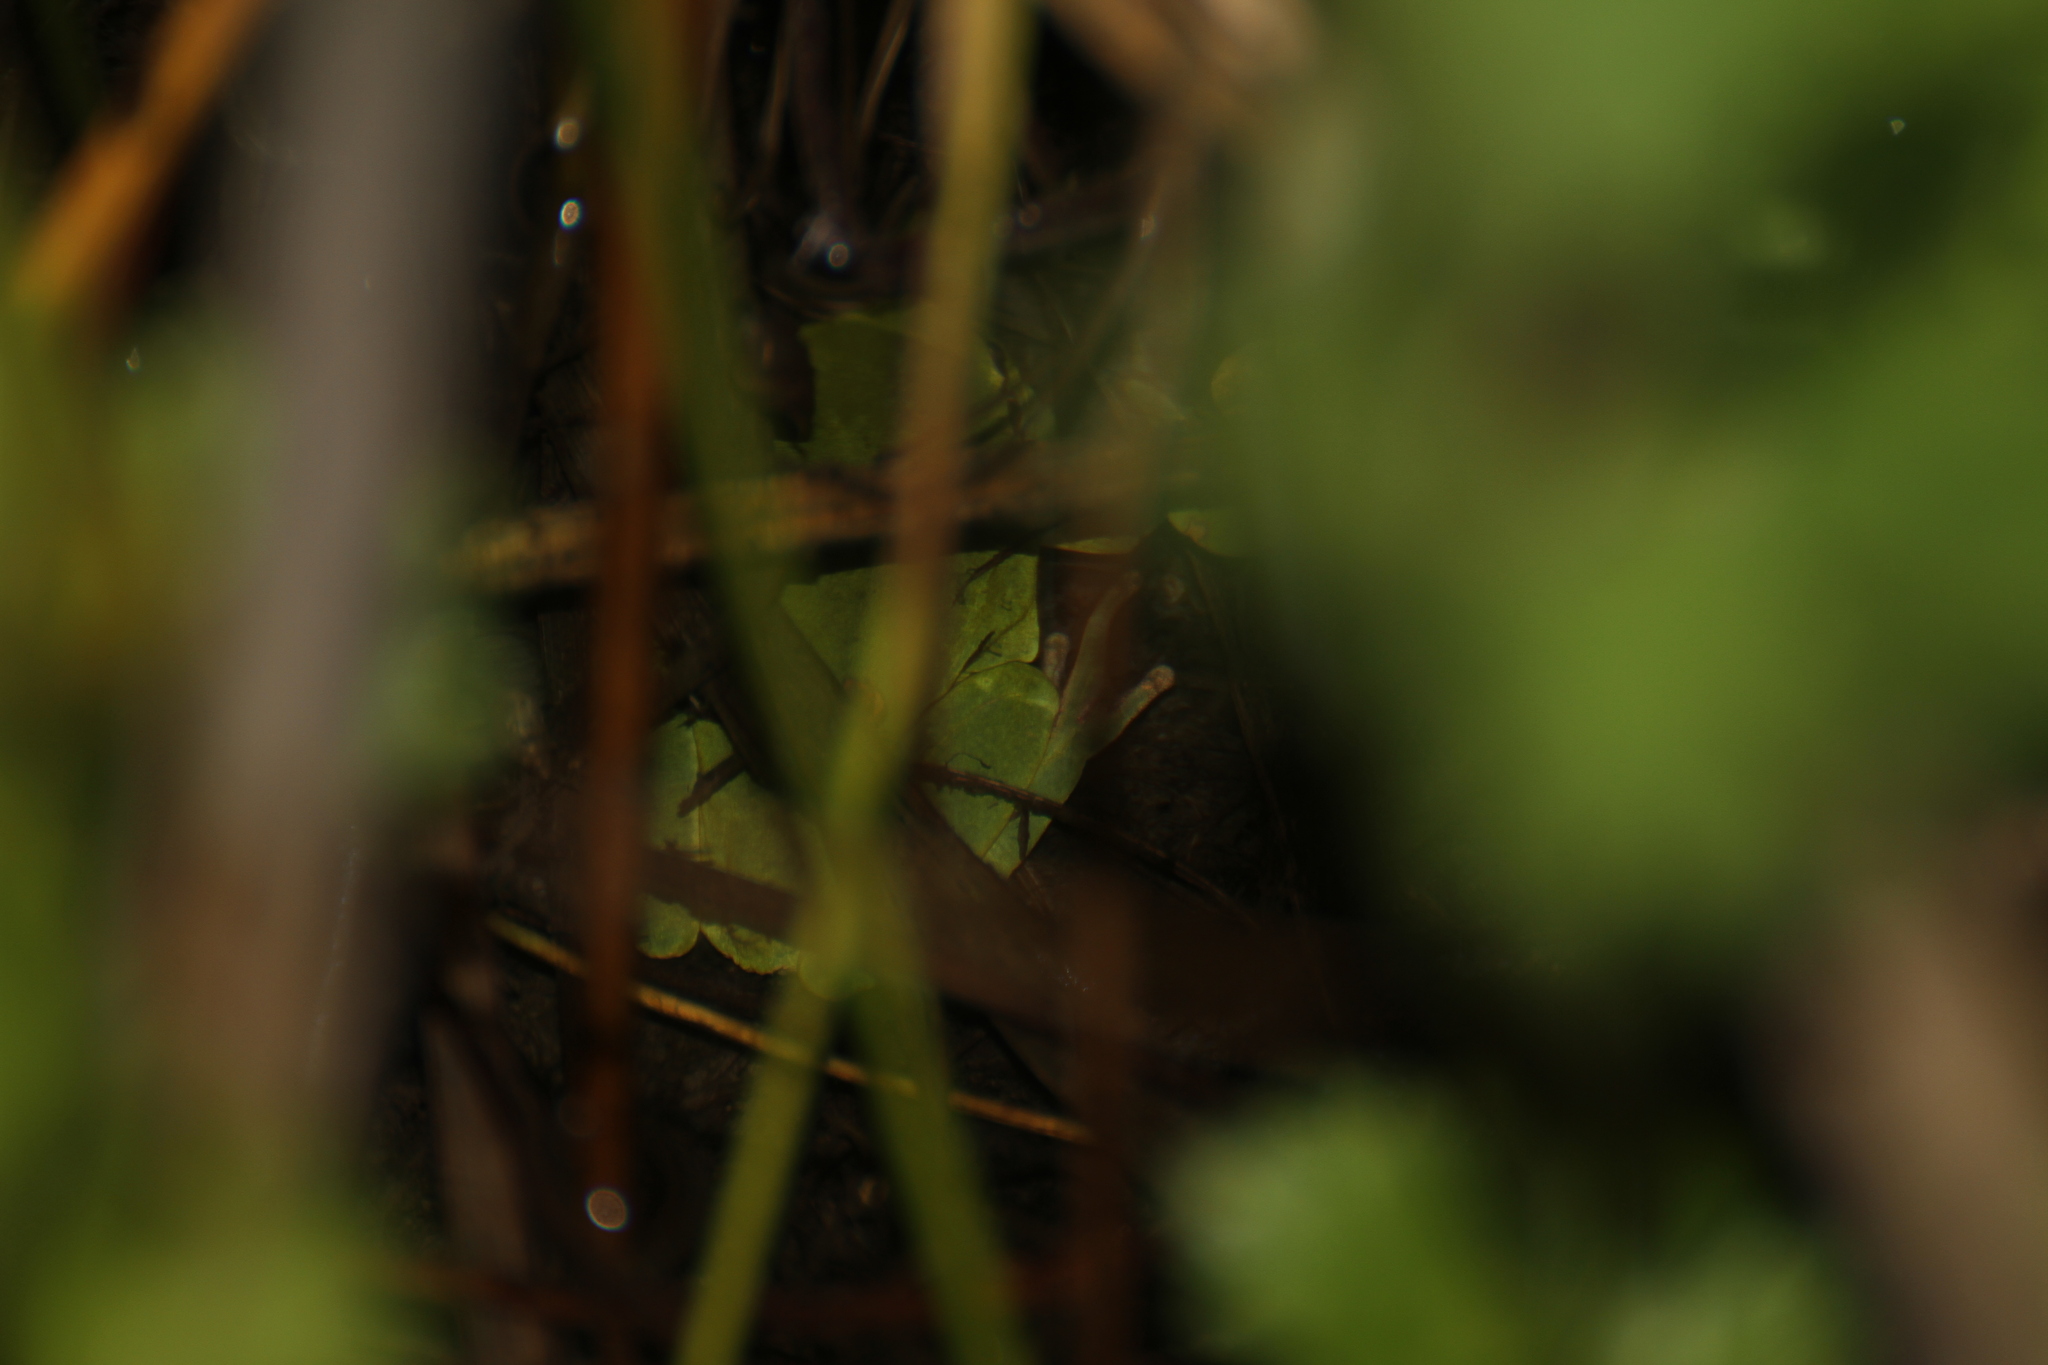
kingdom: Animalia
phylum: Chordata
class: Amphibia
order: Anura
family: Hylidae
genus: Hyla
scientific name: Hyla meridionalis
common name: Stripeless tree frog
